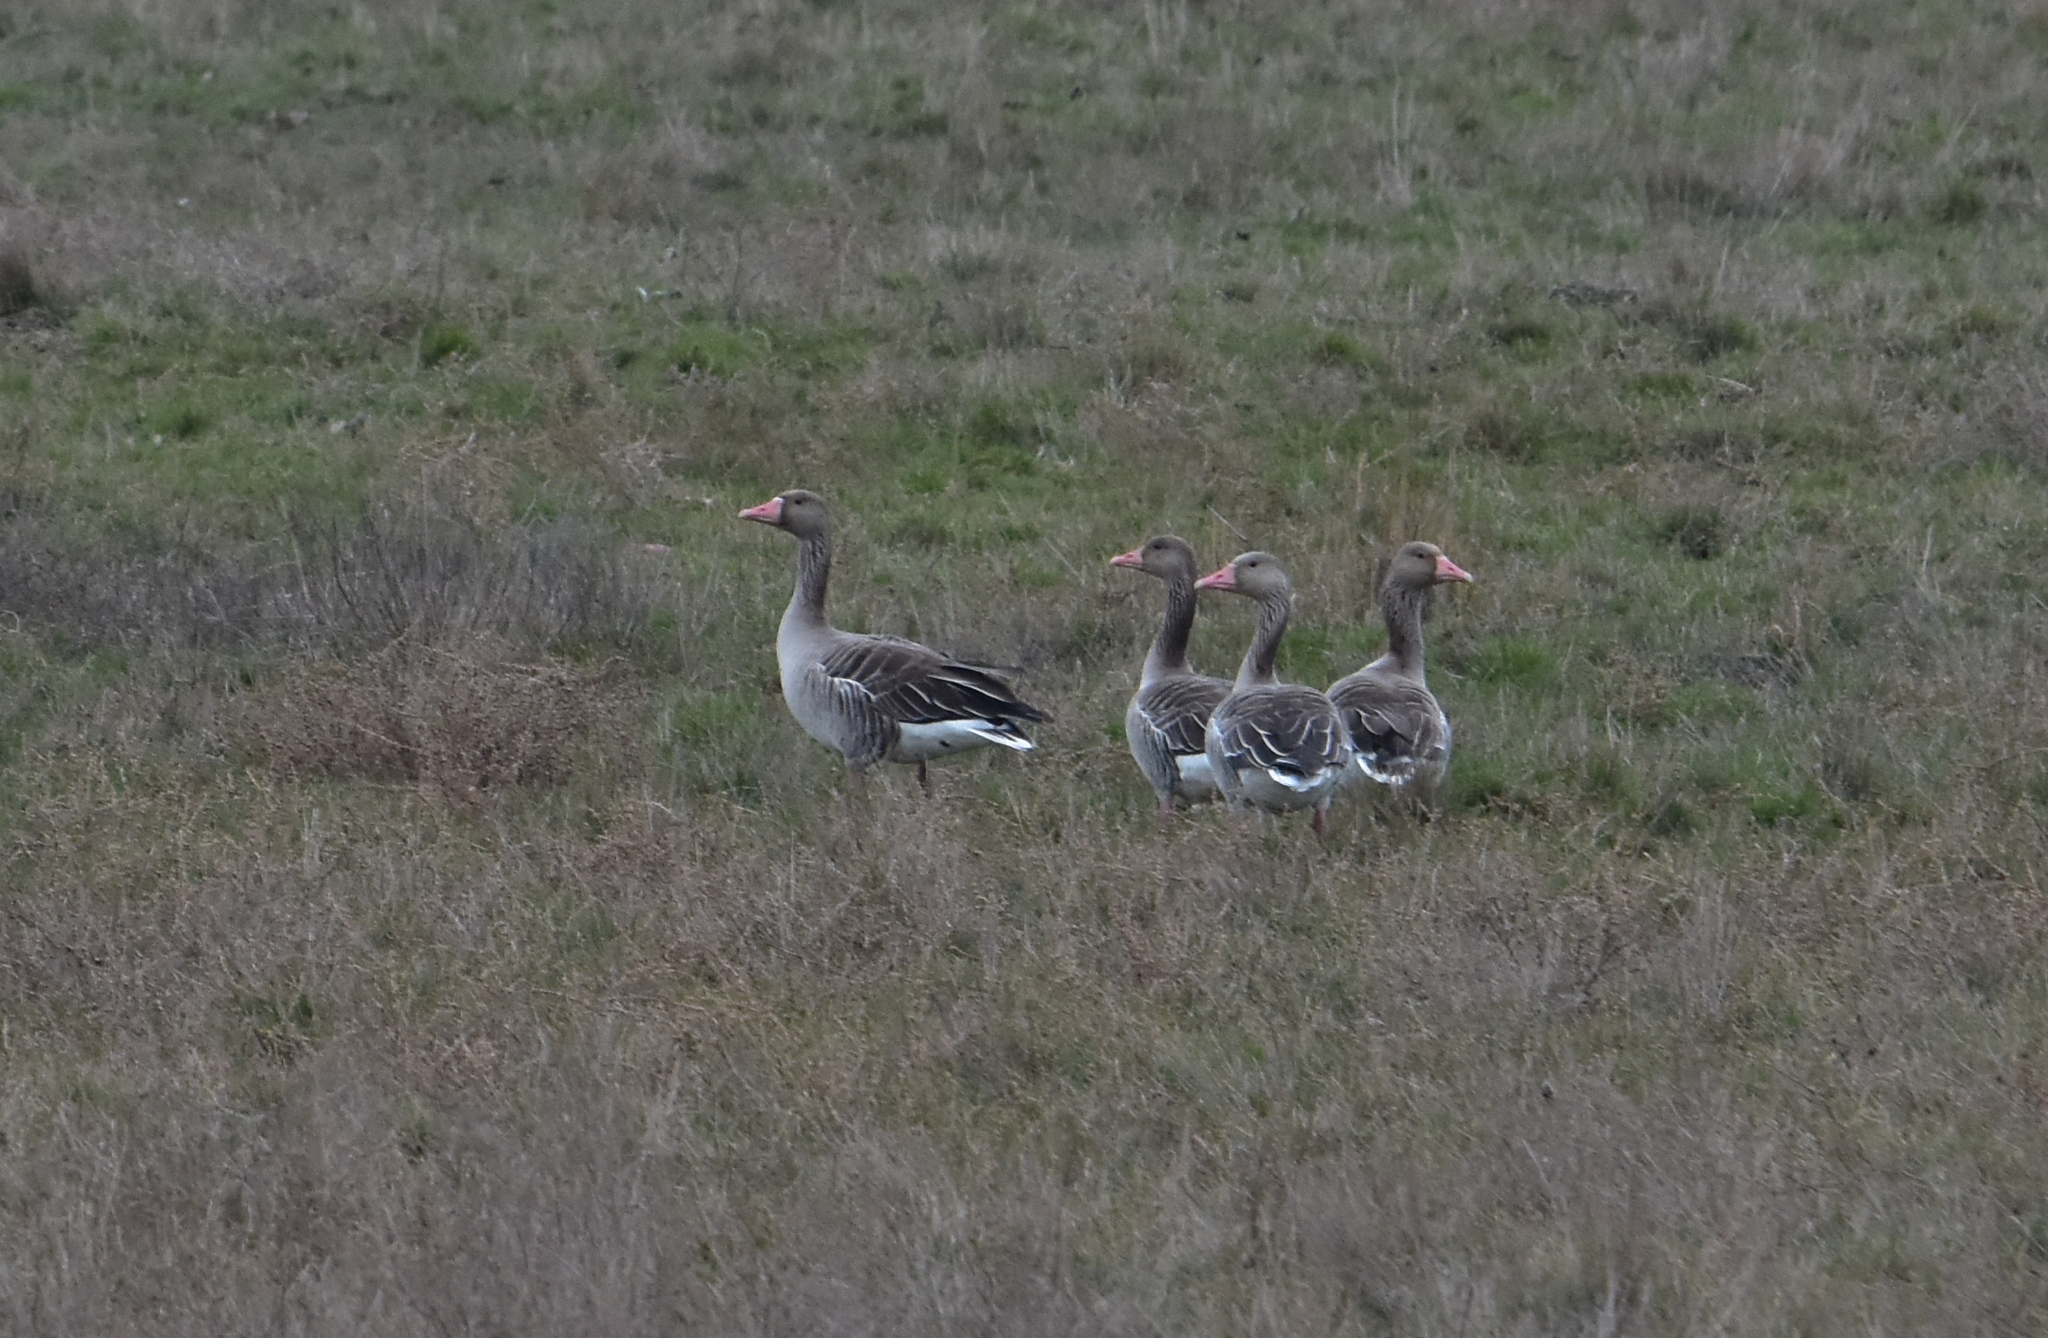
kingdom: Animalia
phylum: Chordata
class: Aves
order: Anseriformes
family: Anatidae
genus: Anser
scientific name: Anser anser
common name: Greylag goose
